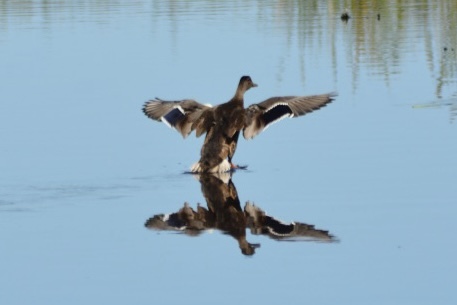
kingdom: Animalia
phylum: Chordata
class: Aves
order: Anseriformes
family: Anatidae
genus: Anas
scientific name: Anas platyrhynchos
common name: Mallard
